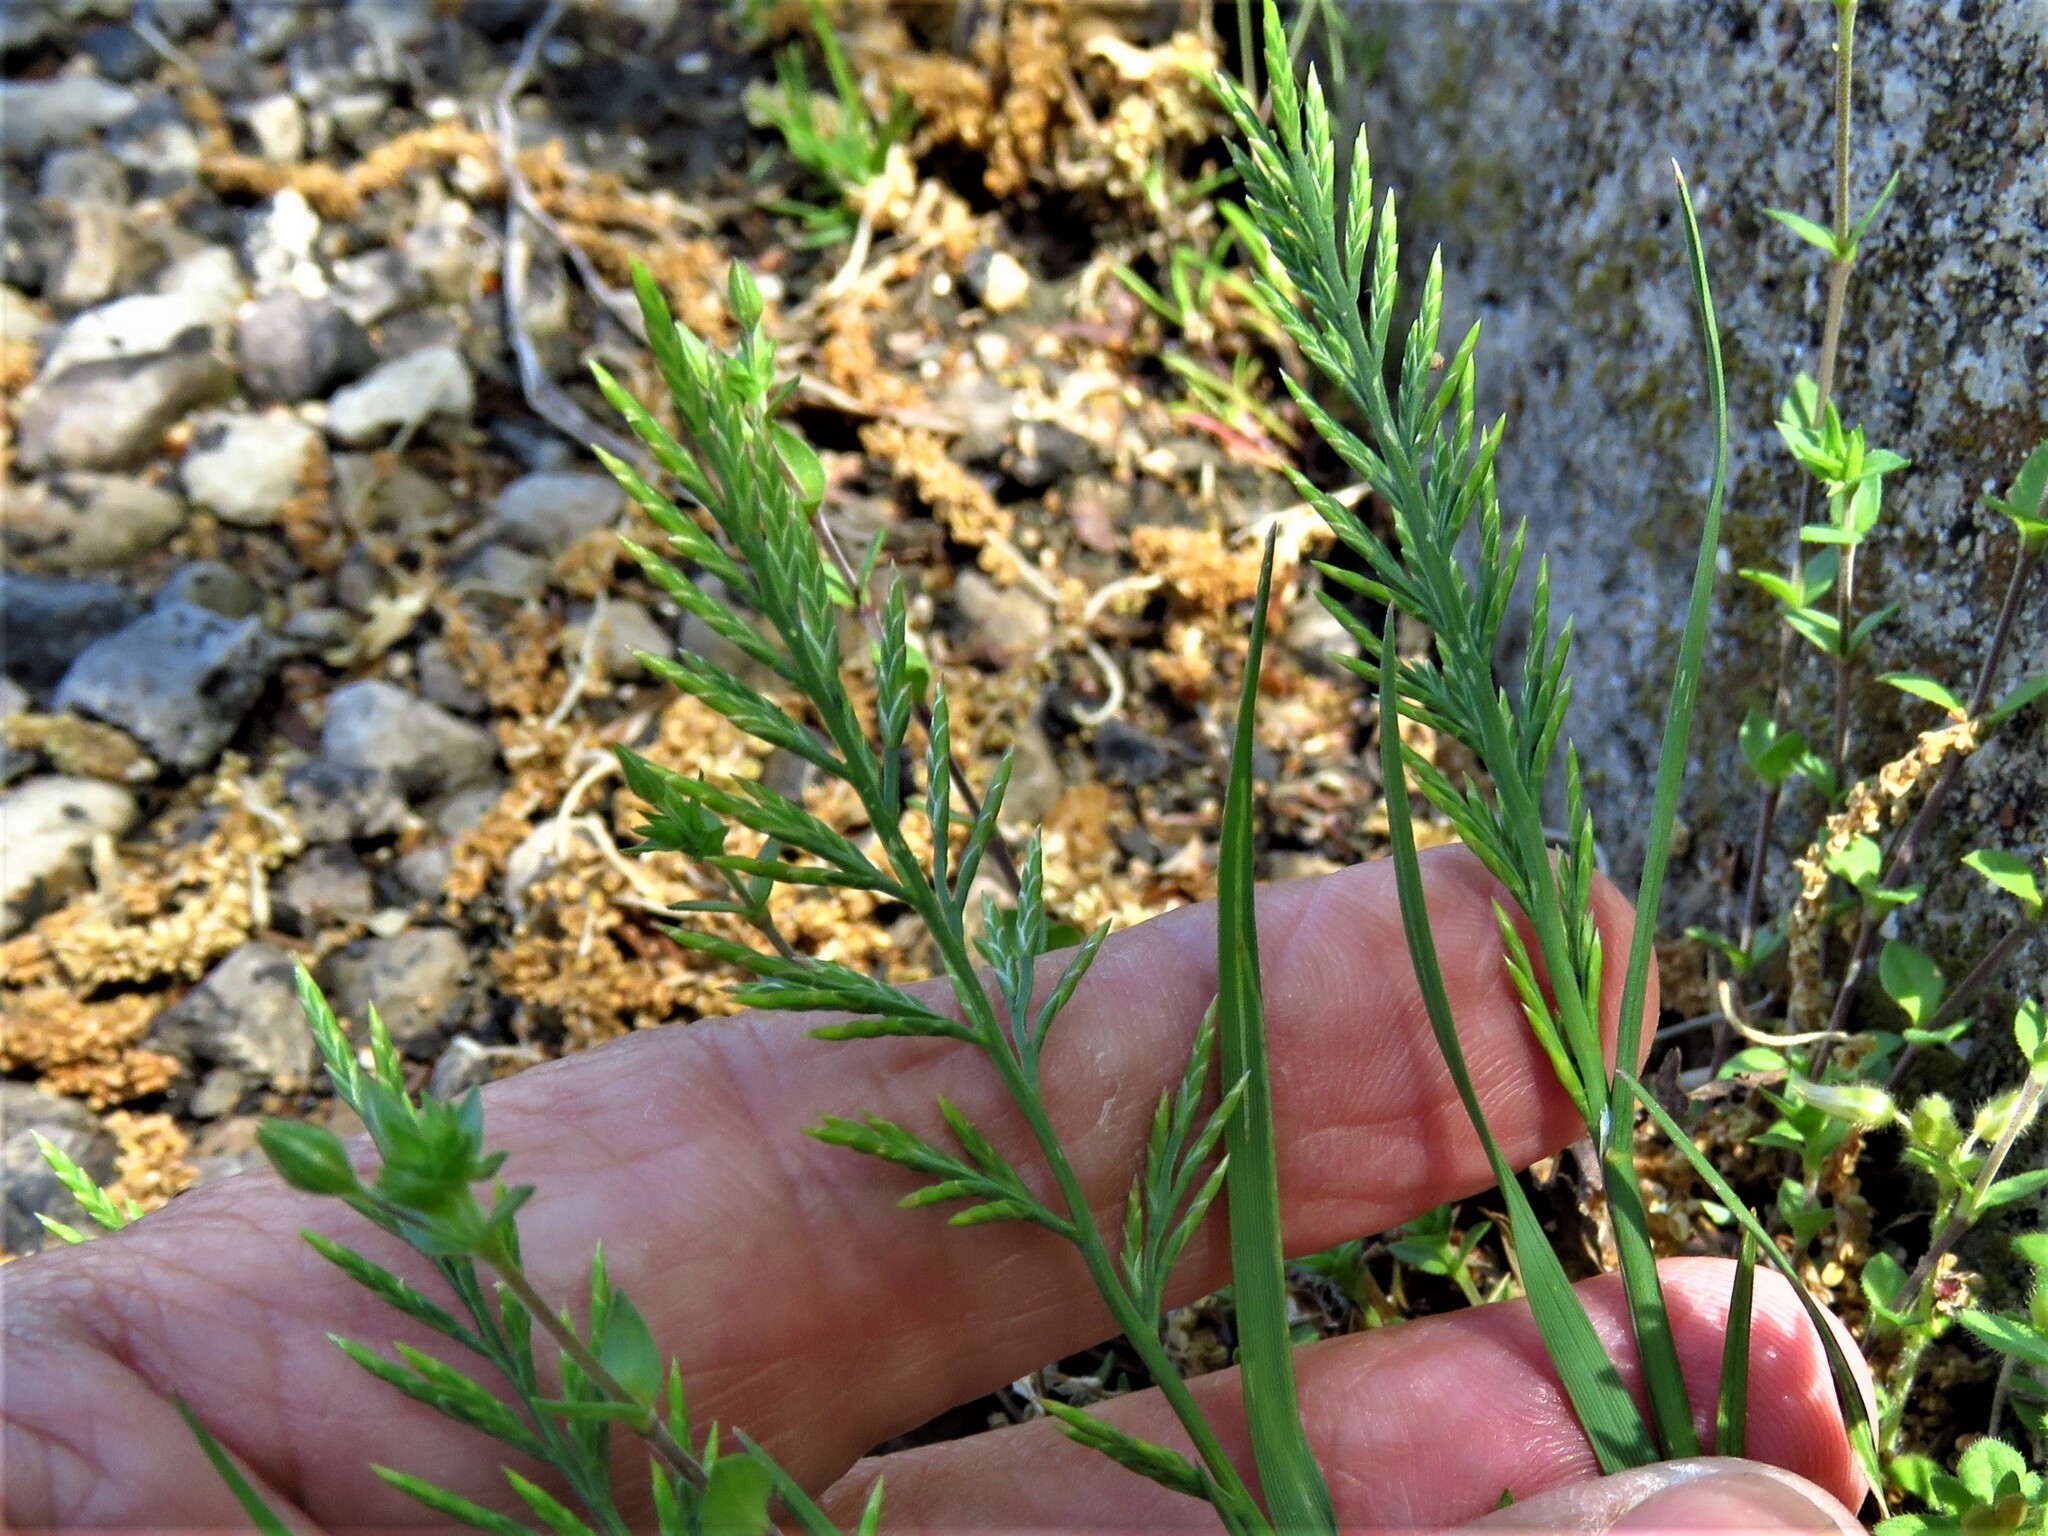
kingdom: Plantae
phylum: Tracheophyta
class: Liliopsida
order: Poales
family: Poaceae
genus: Catapodium
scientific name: Catapodium rigidum
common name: Fern-grass
